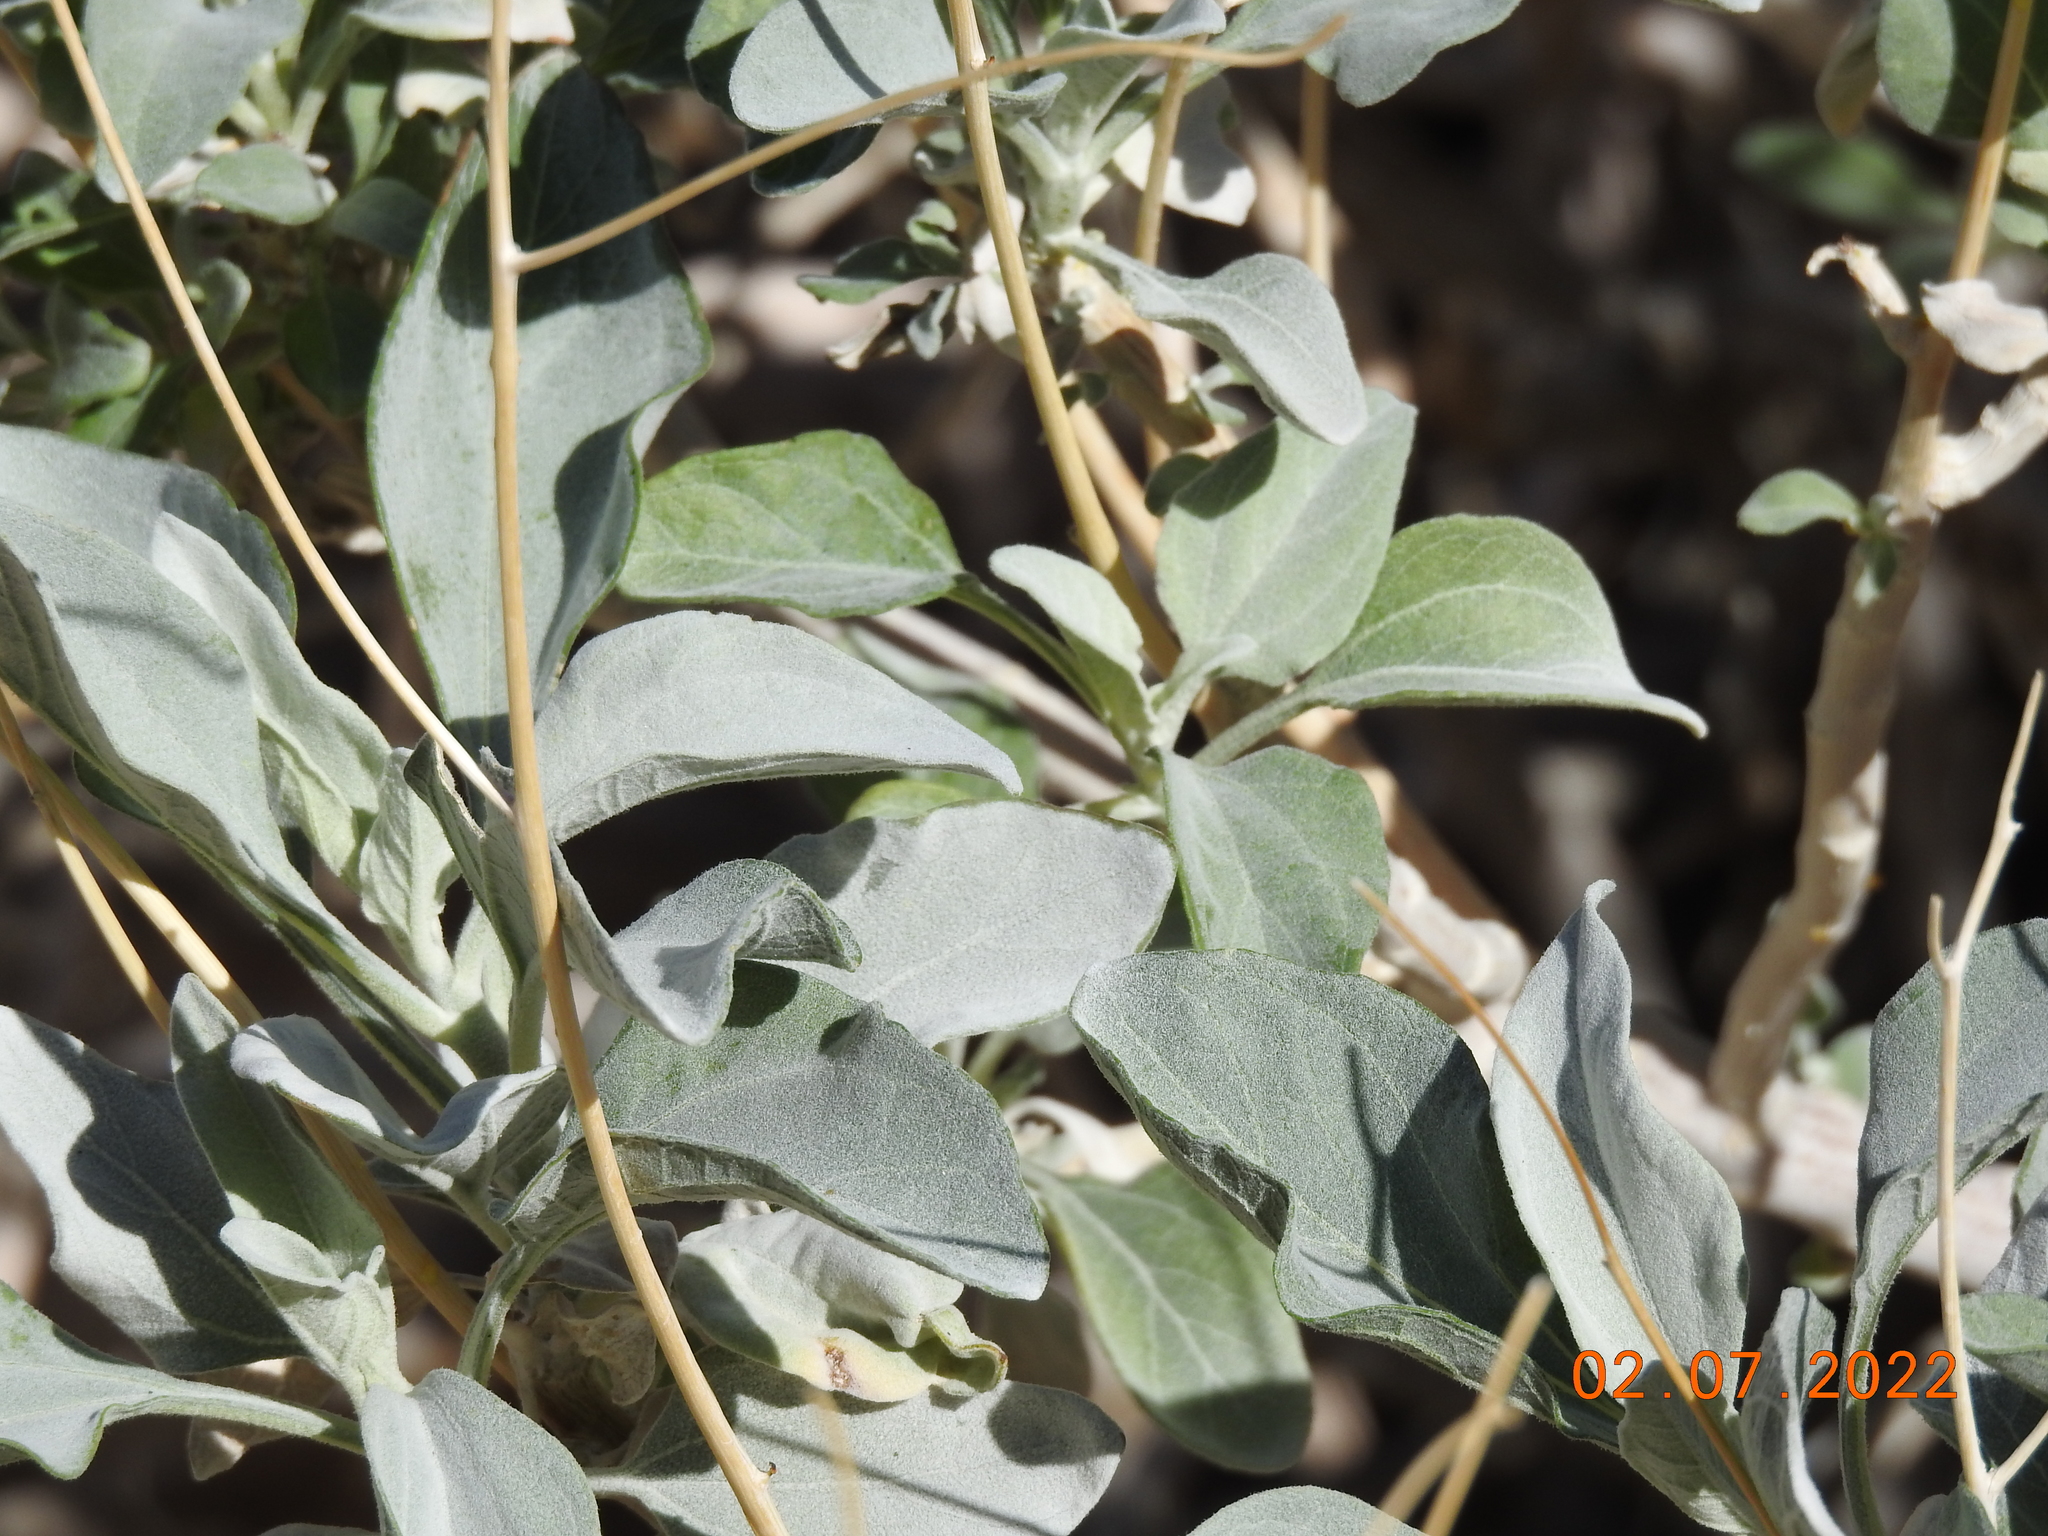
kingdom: Plantae
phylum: Tracheophyta
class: Magnoliopsida
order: Asterales
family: Asteraceae
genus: Encelia
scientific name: Encelia farinosa
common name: Brittlebush
